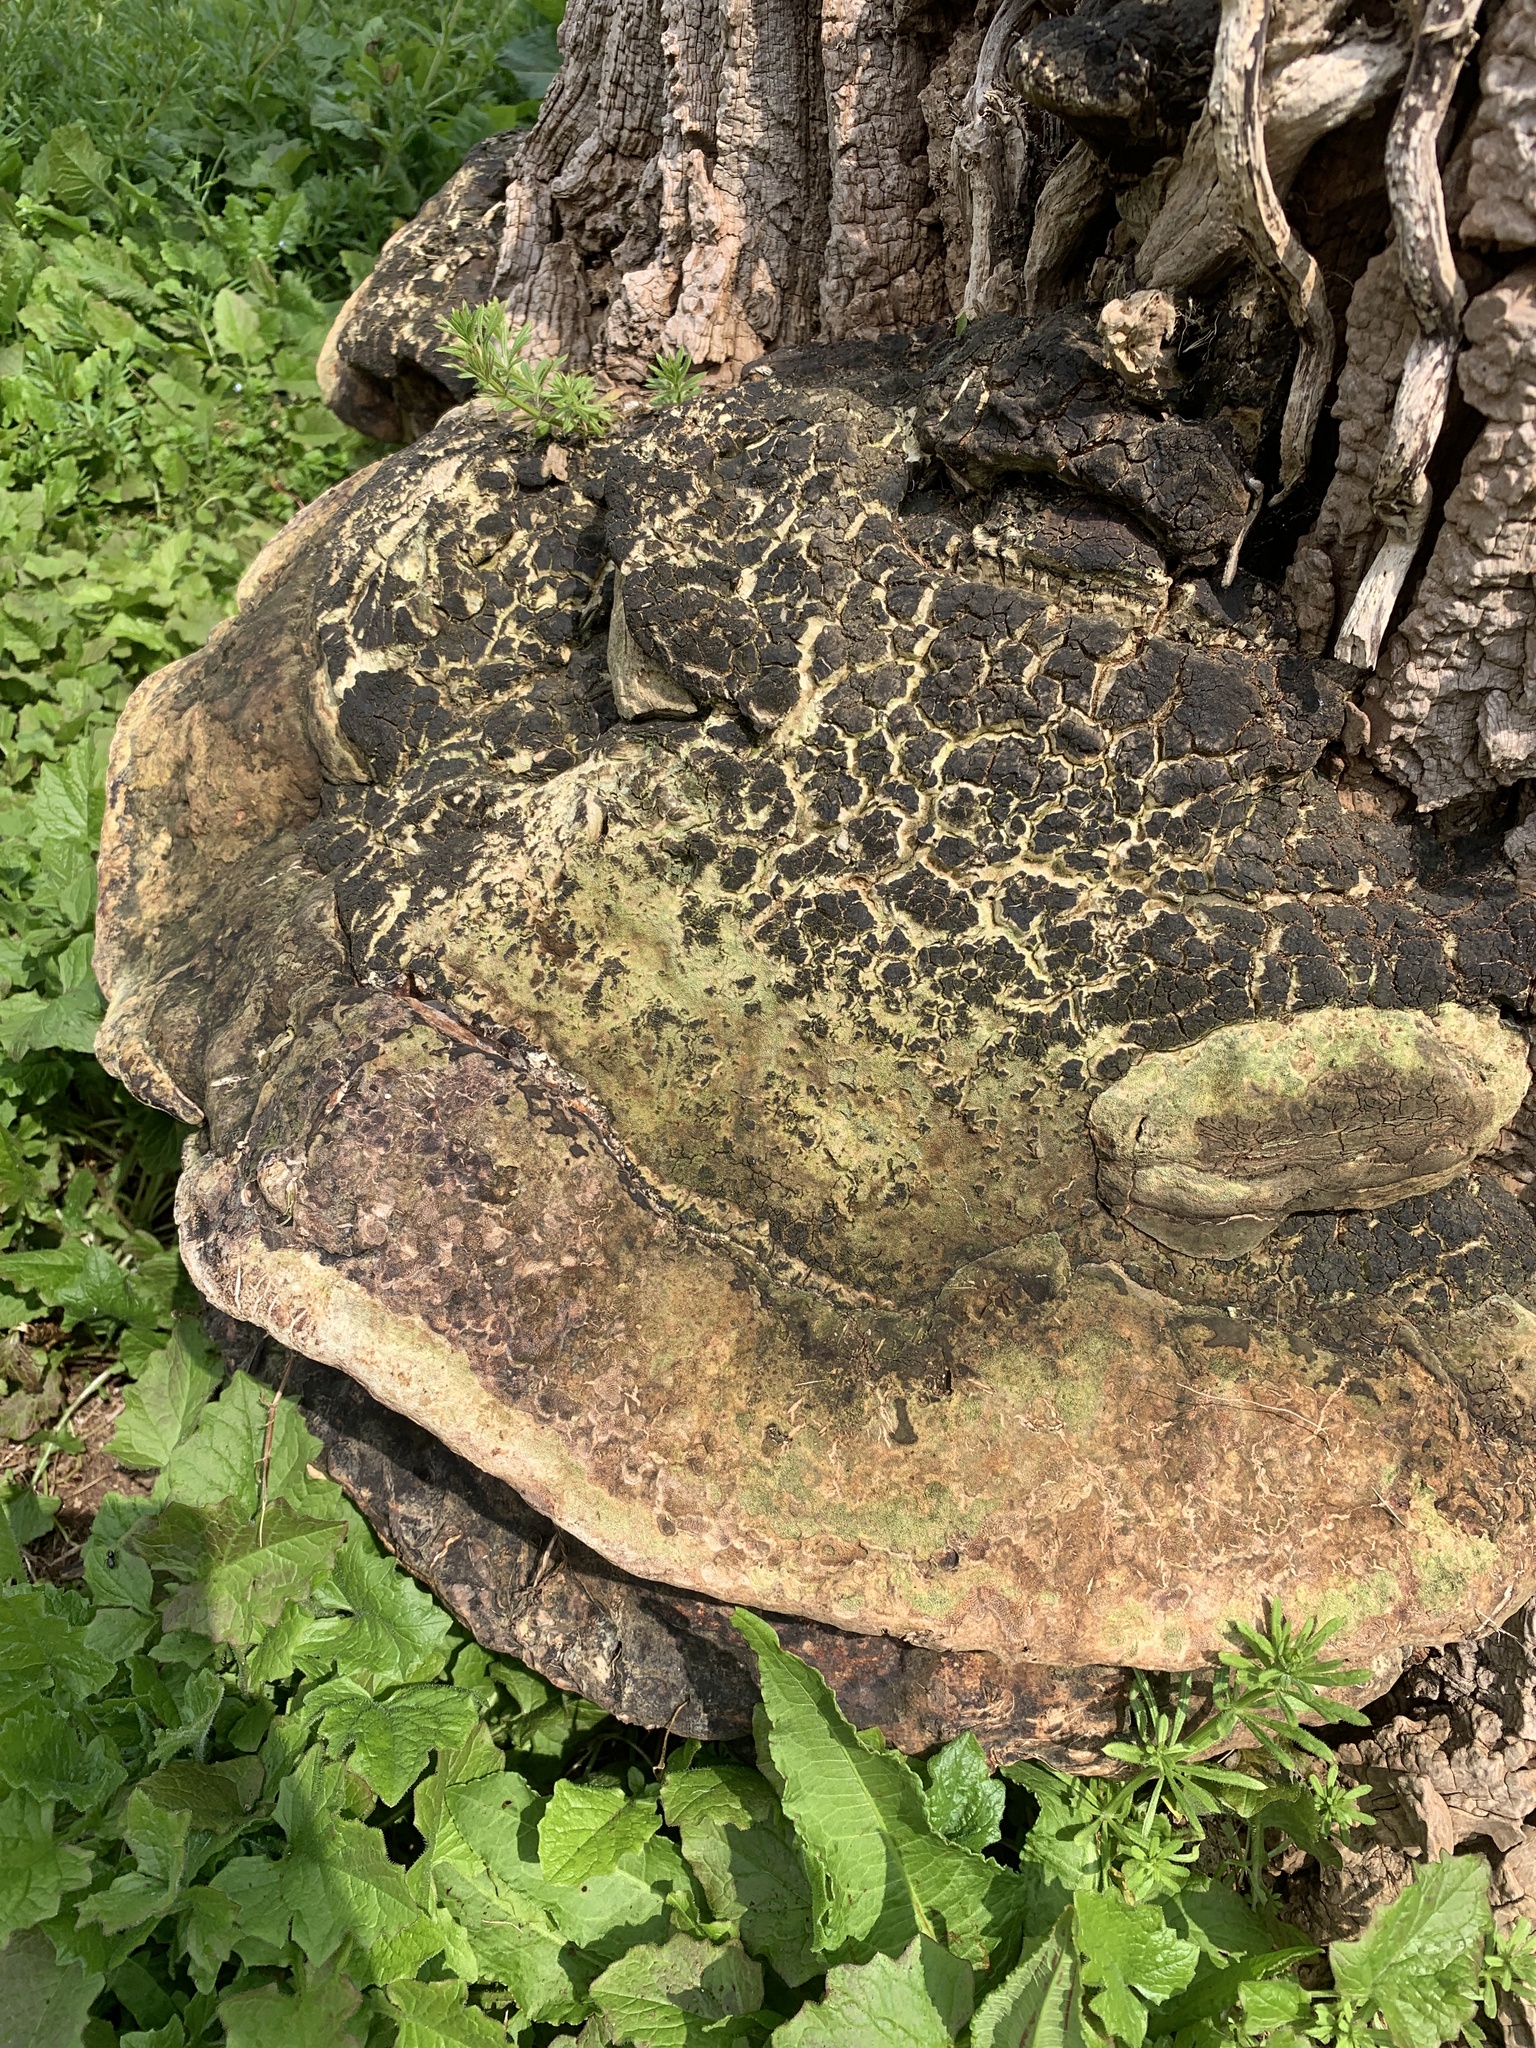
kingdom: Fungi
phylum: Basidiomycota
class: Agaricomycetes
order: Polyporales
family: Polyporaceae
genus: Cerioporus
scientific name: Cerioporus squamosus
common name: Dryad's saddle
